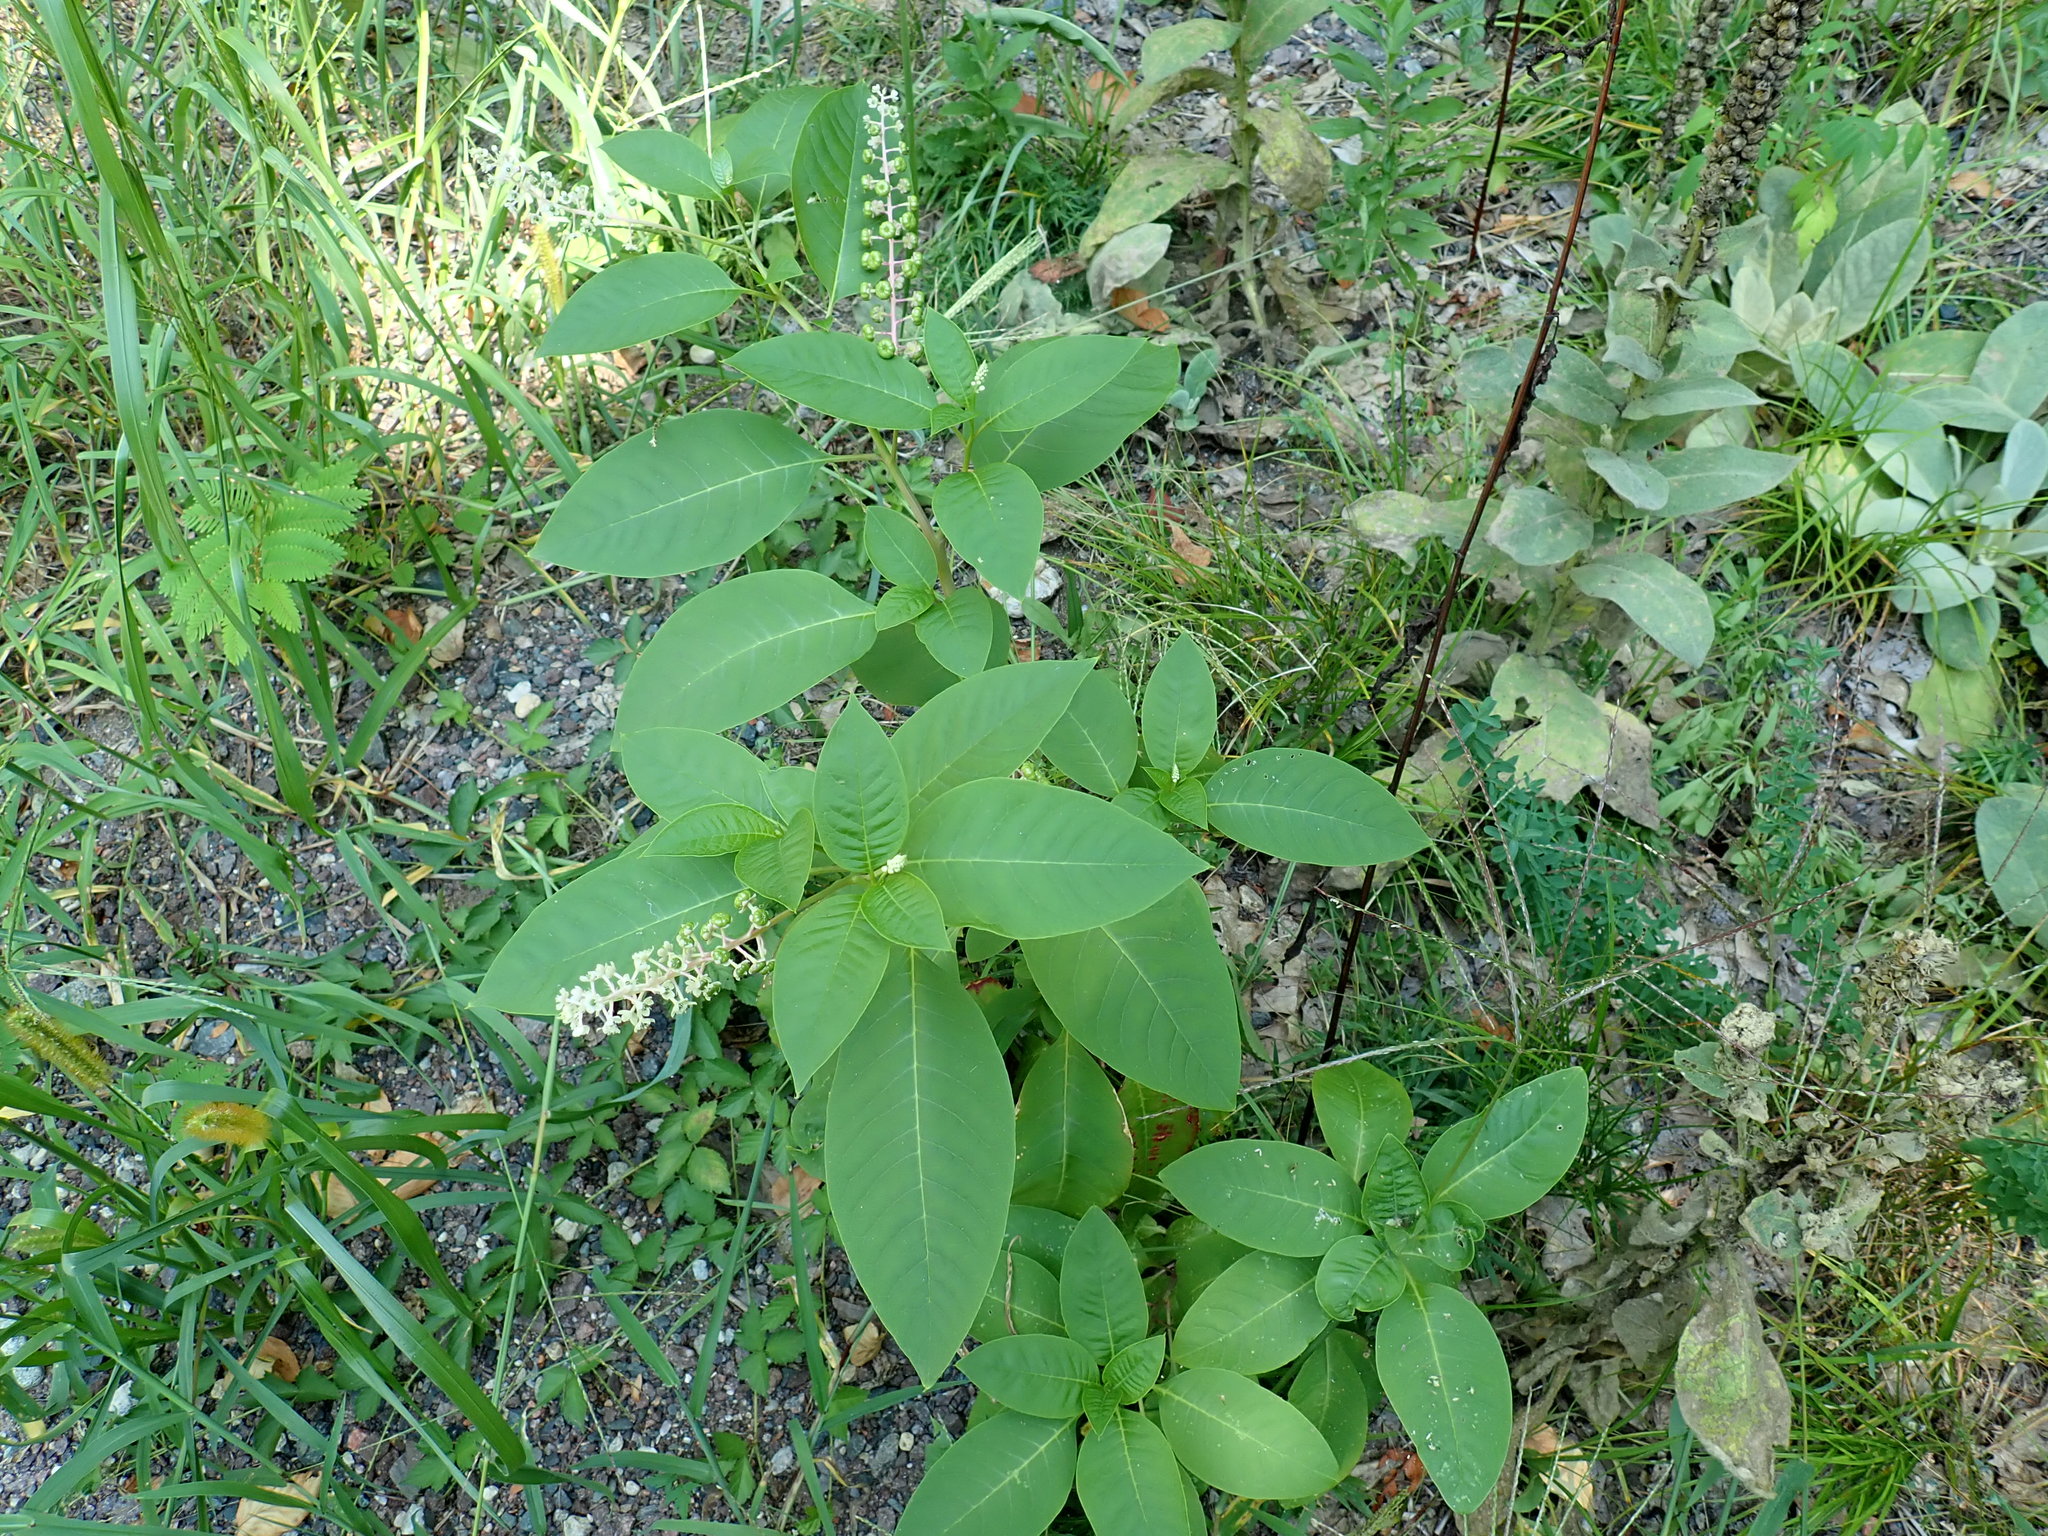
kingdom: Plantae
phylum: Tracheophyta
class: Magnoliopsida
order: Caryophyllales
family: Phytolaccaceae
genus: Phytolacca
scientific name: Phytolacca americana
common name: American pokeweed
